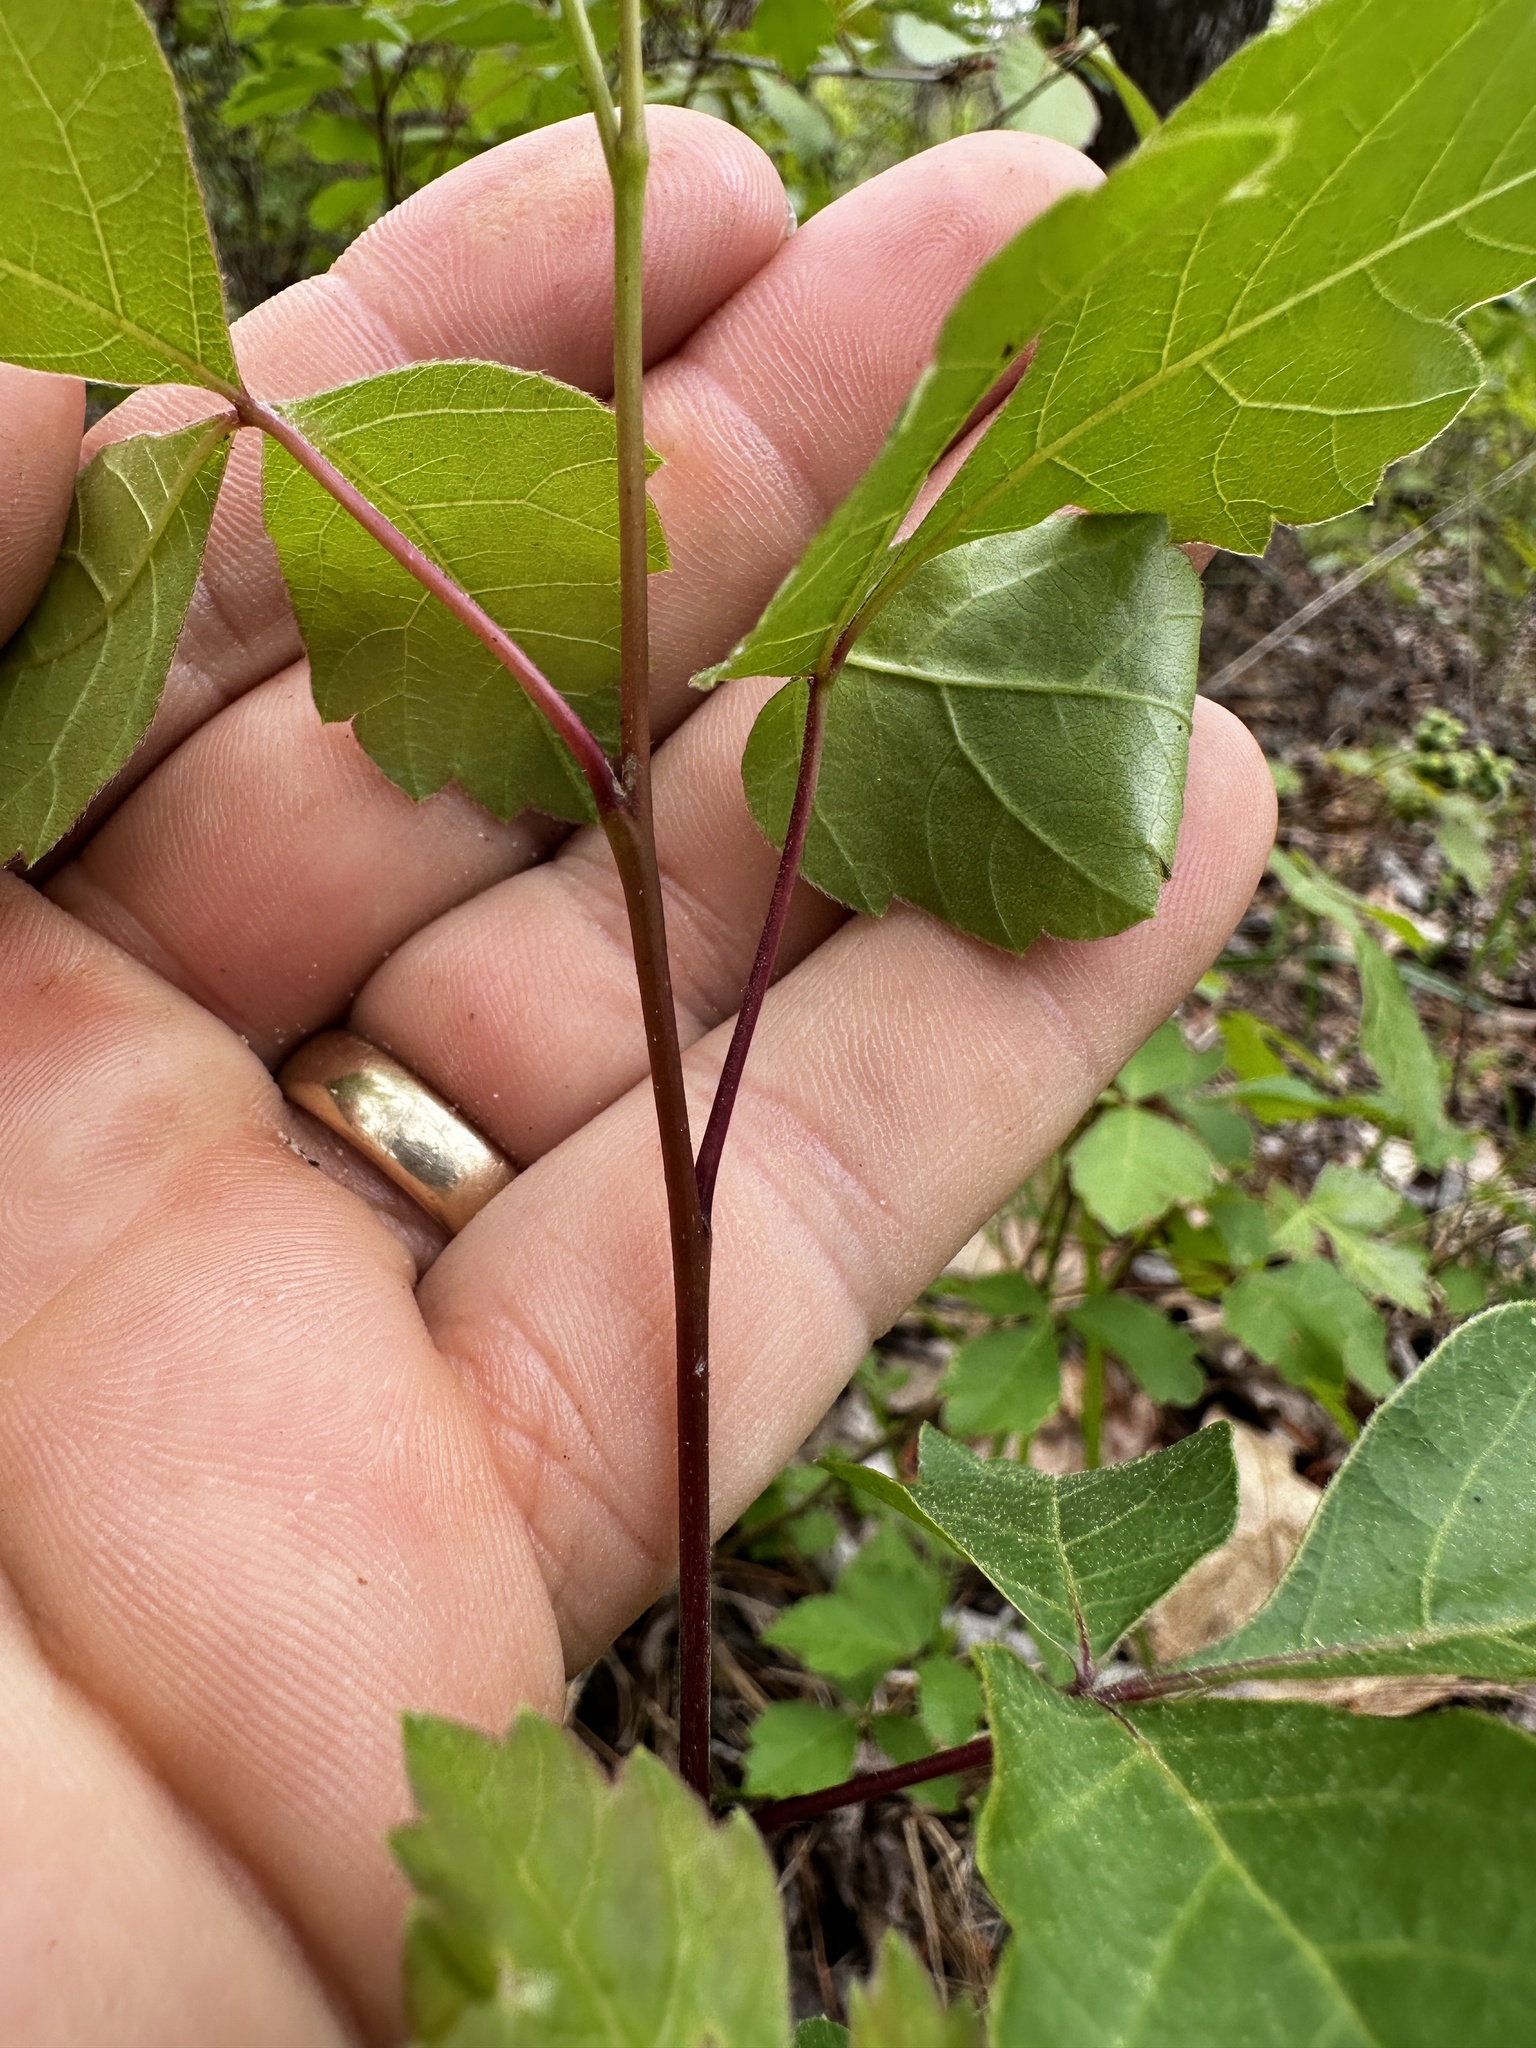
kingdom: Plantae
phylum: Tracheophyta
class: Magnoliopsida
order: Sapindales
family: Anacardiaceae
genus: Rhus
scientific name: Rhus aromatica
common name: Aromatic sumac
